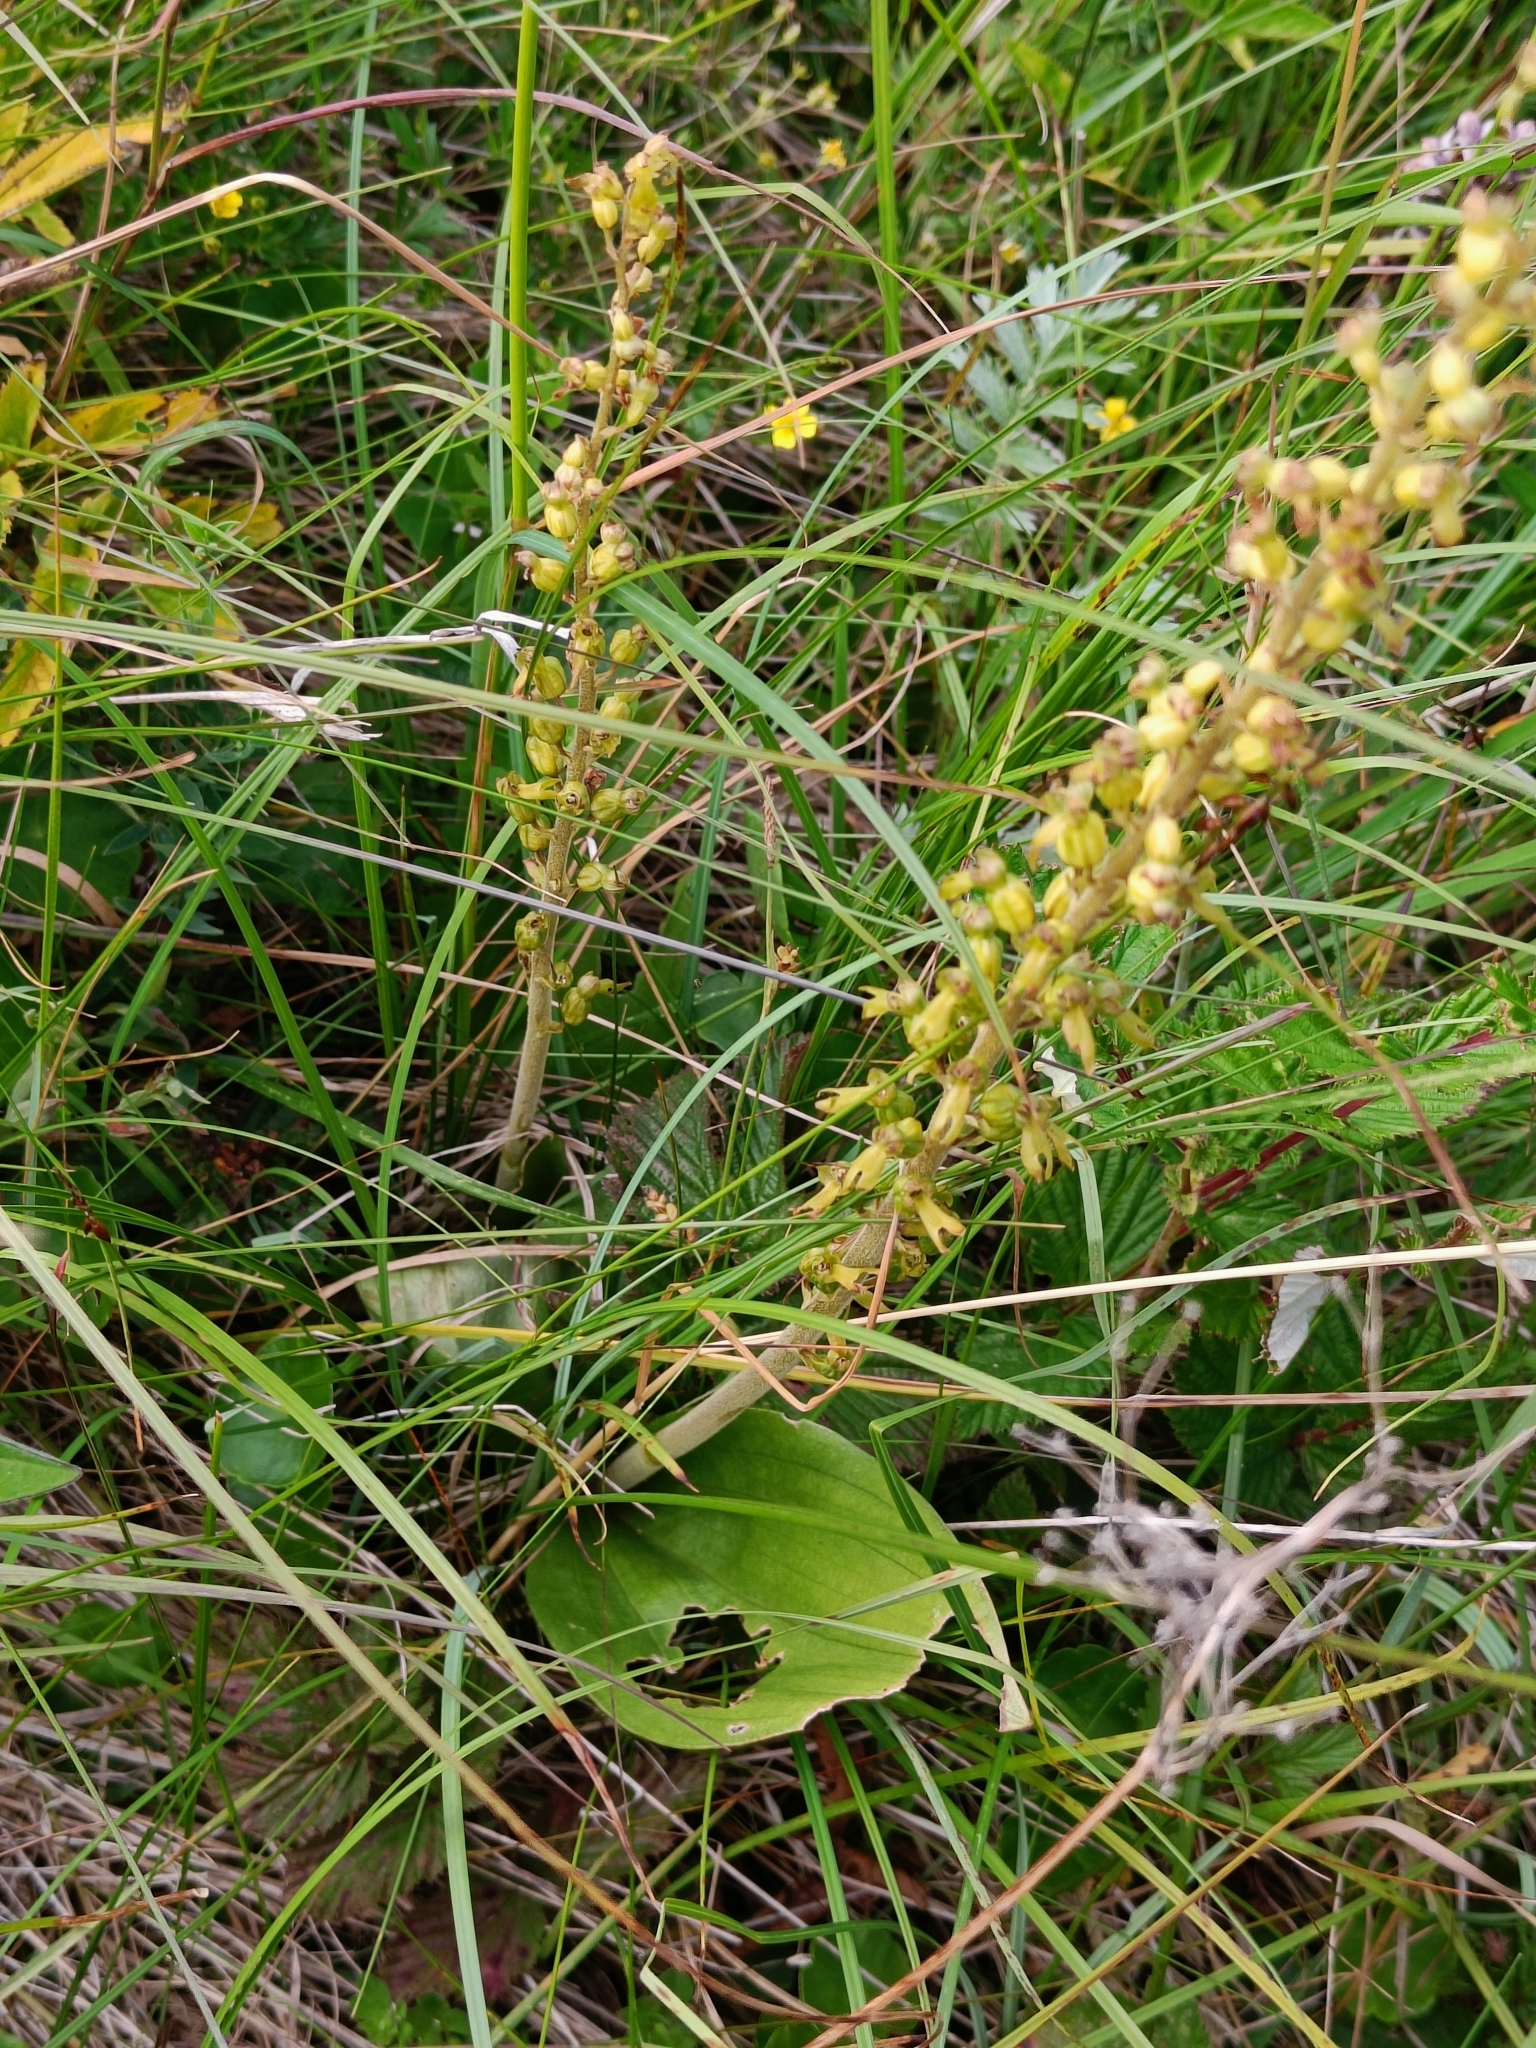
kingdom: Plantae
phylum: Tracheophyta
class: Liliopsida
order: Asparagales
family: Orchidaceae
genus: Neottia
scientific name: Neottia ovata
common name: Common twayblade
